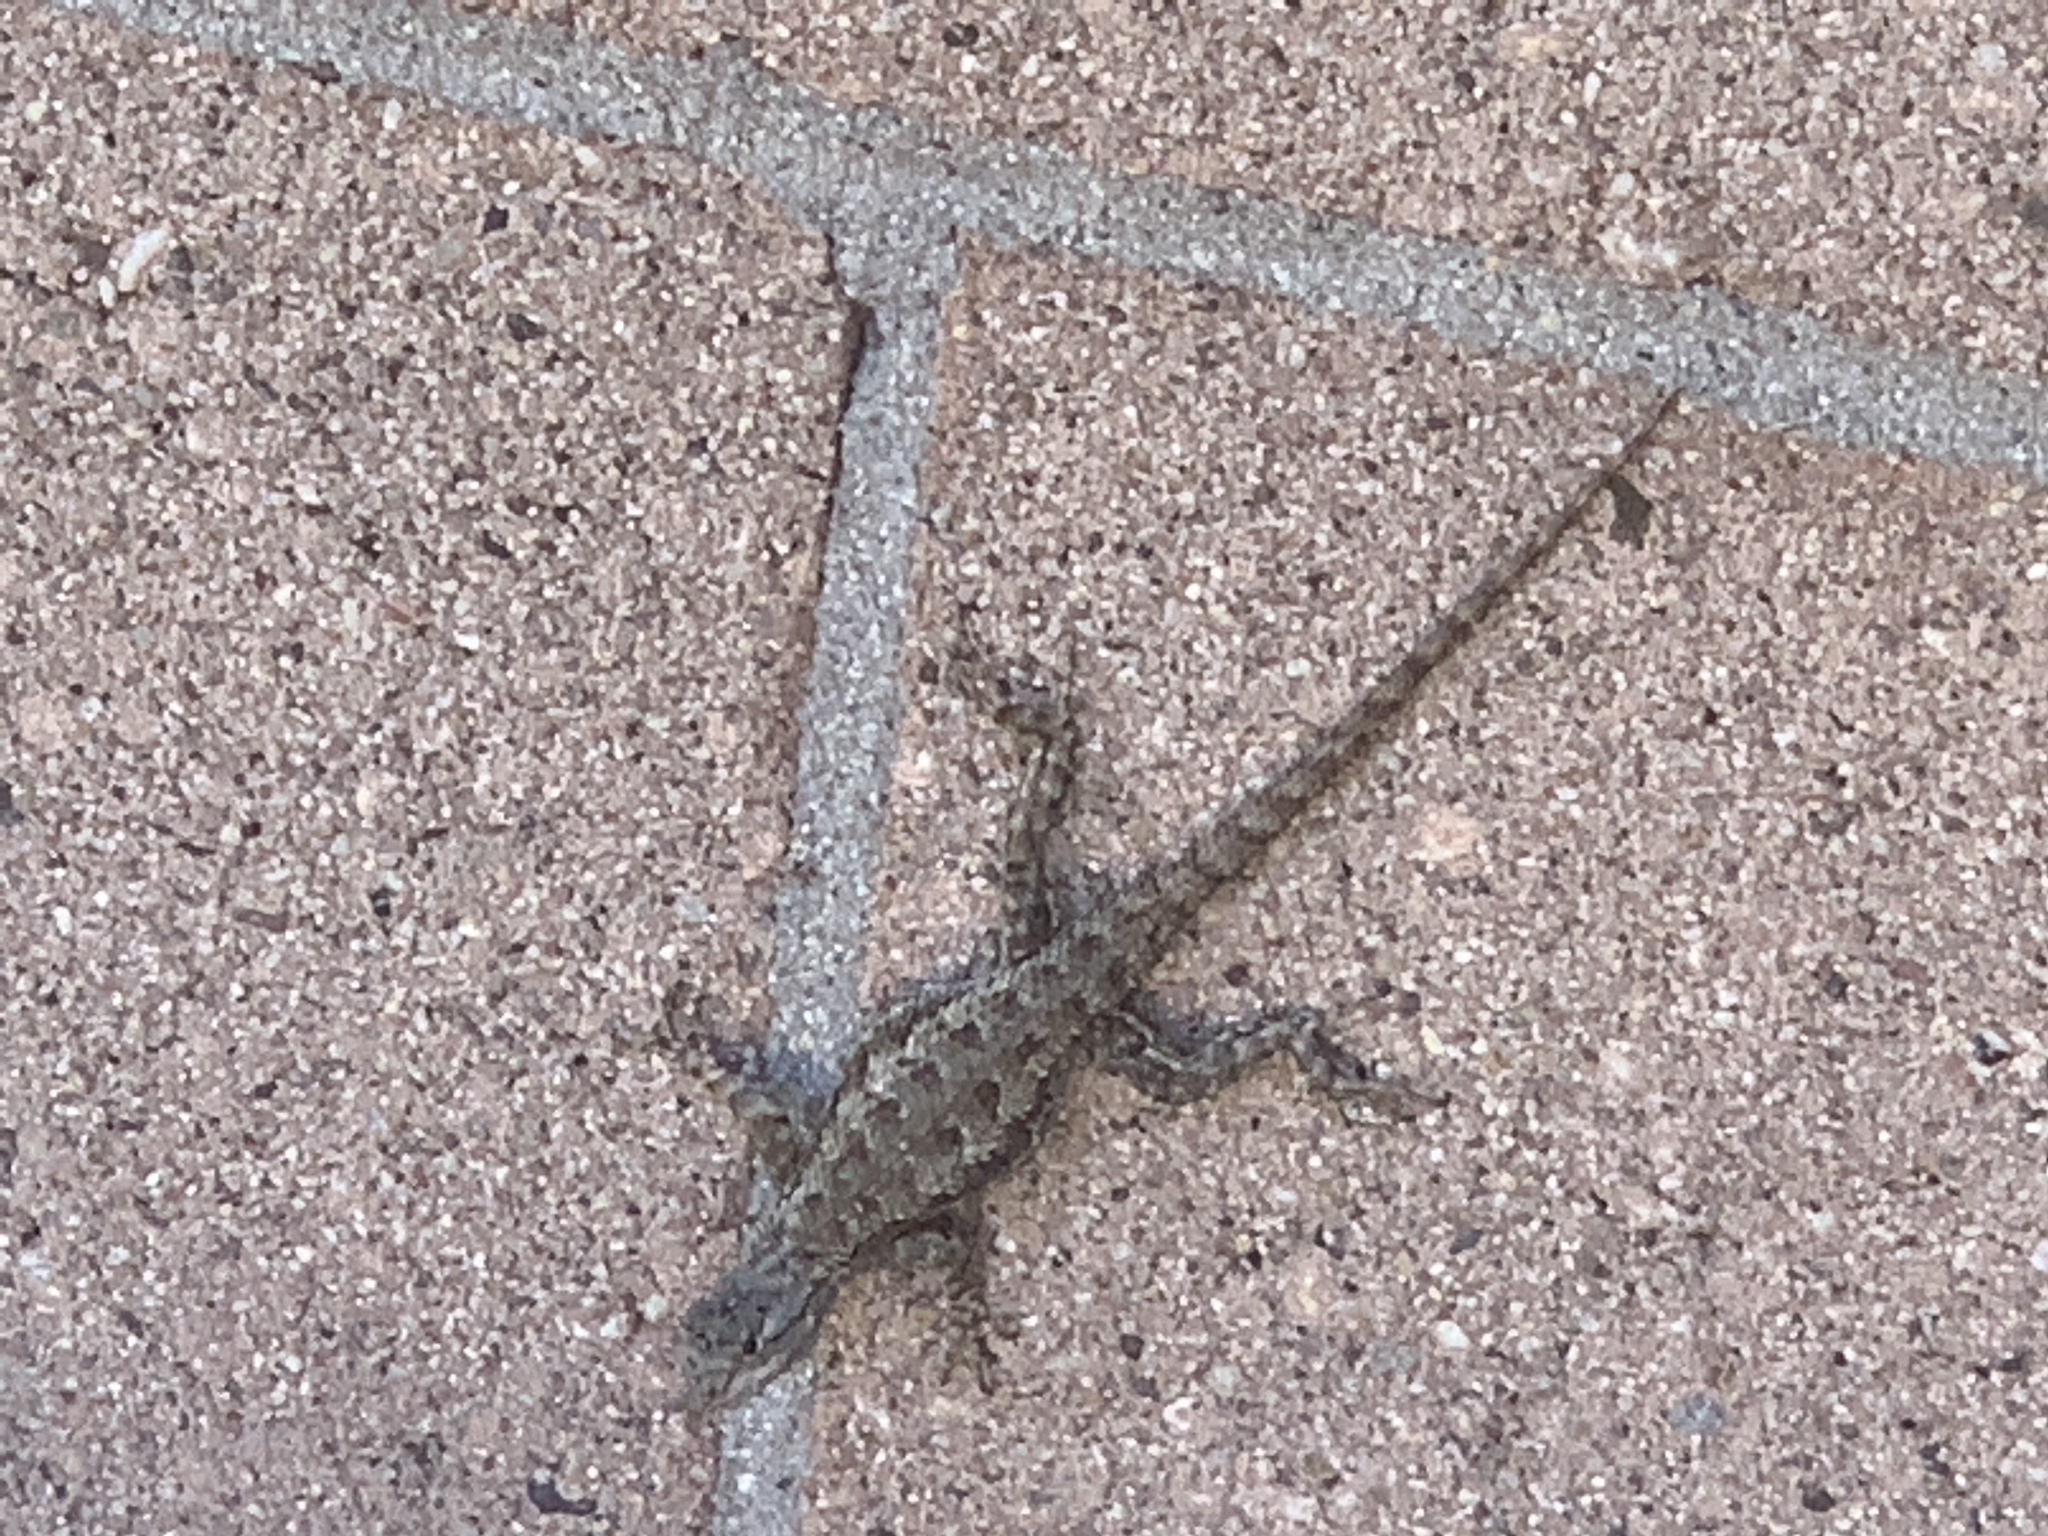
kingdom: Animalia
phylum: Chordata
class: Squamata
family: Phrynosomatidae
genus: Sceloporus
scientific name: Sceloporus occidentalis
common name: Western fence lizard
